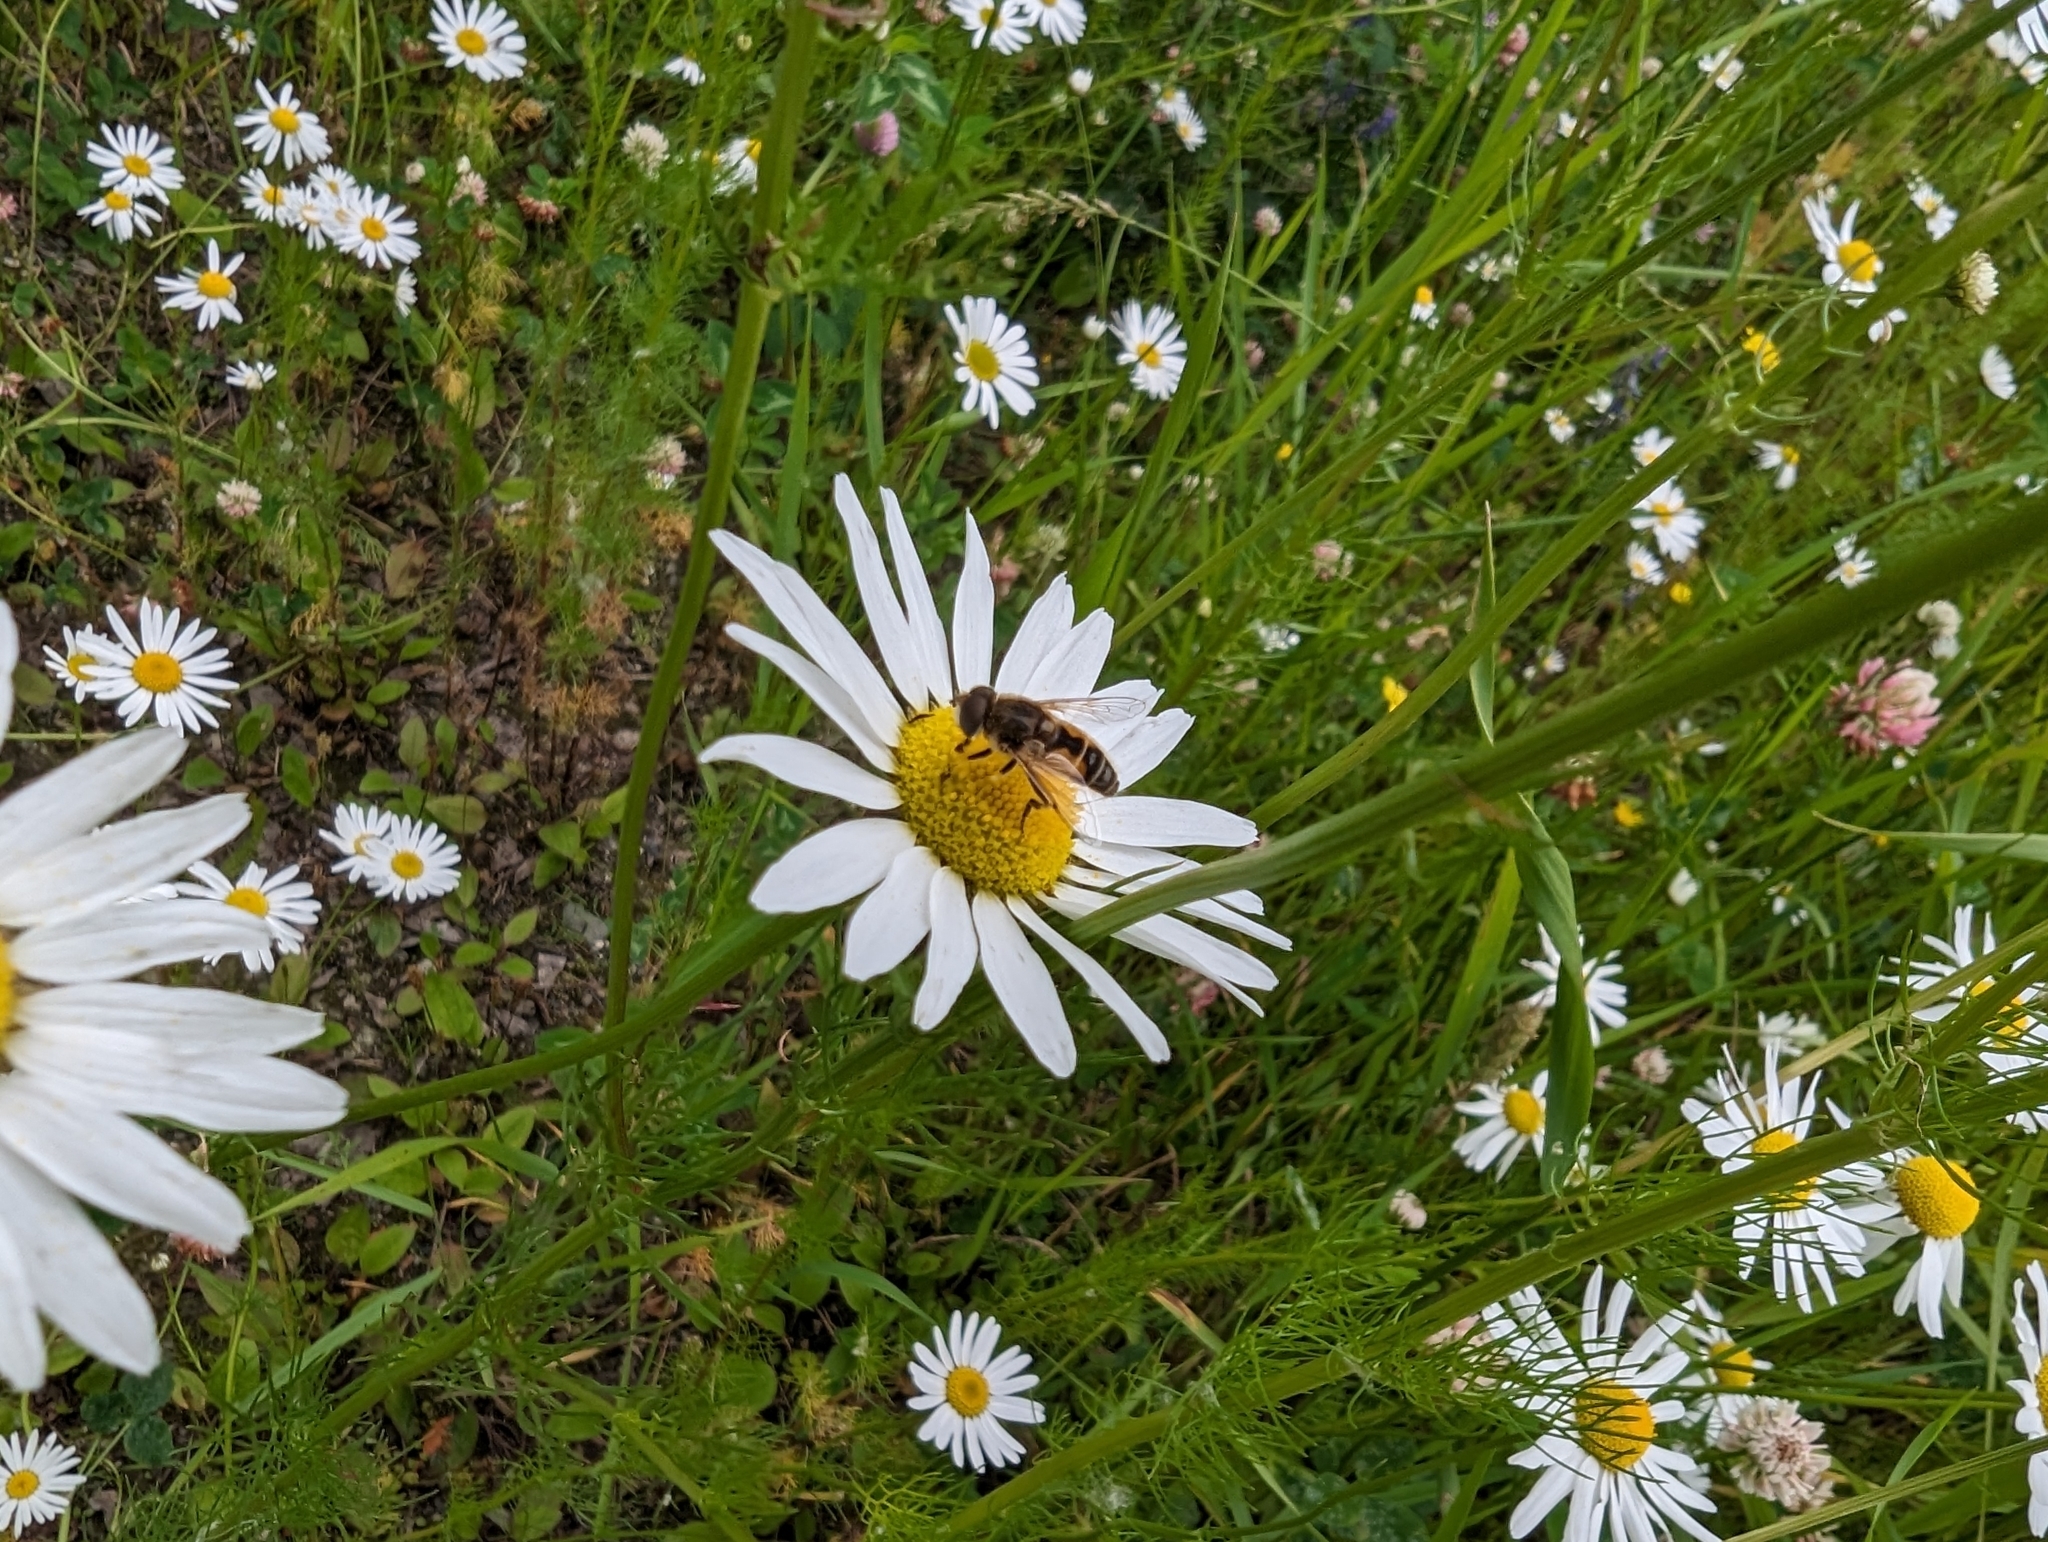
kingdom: Animalia
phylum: Arthropoda
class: Insecta
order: Diptera
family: Syrphidae
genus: Eristalis
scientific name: Eristalis arbustorum
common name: Hover fly
